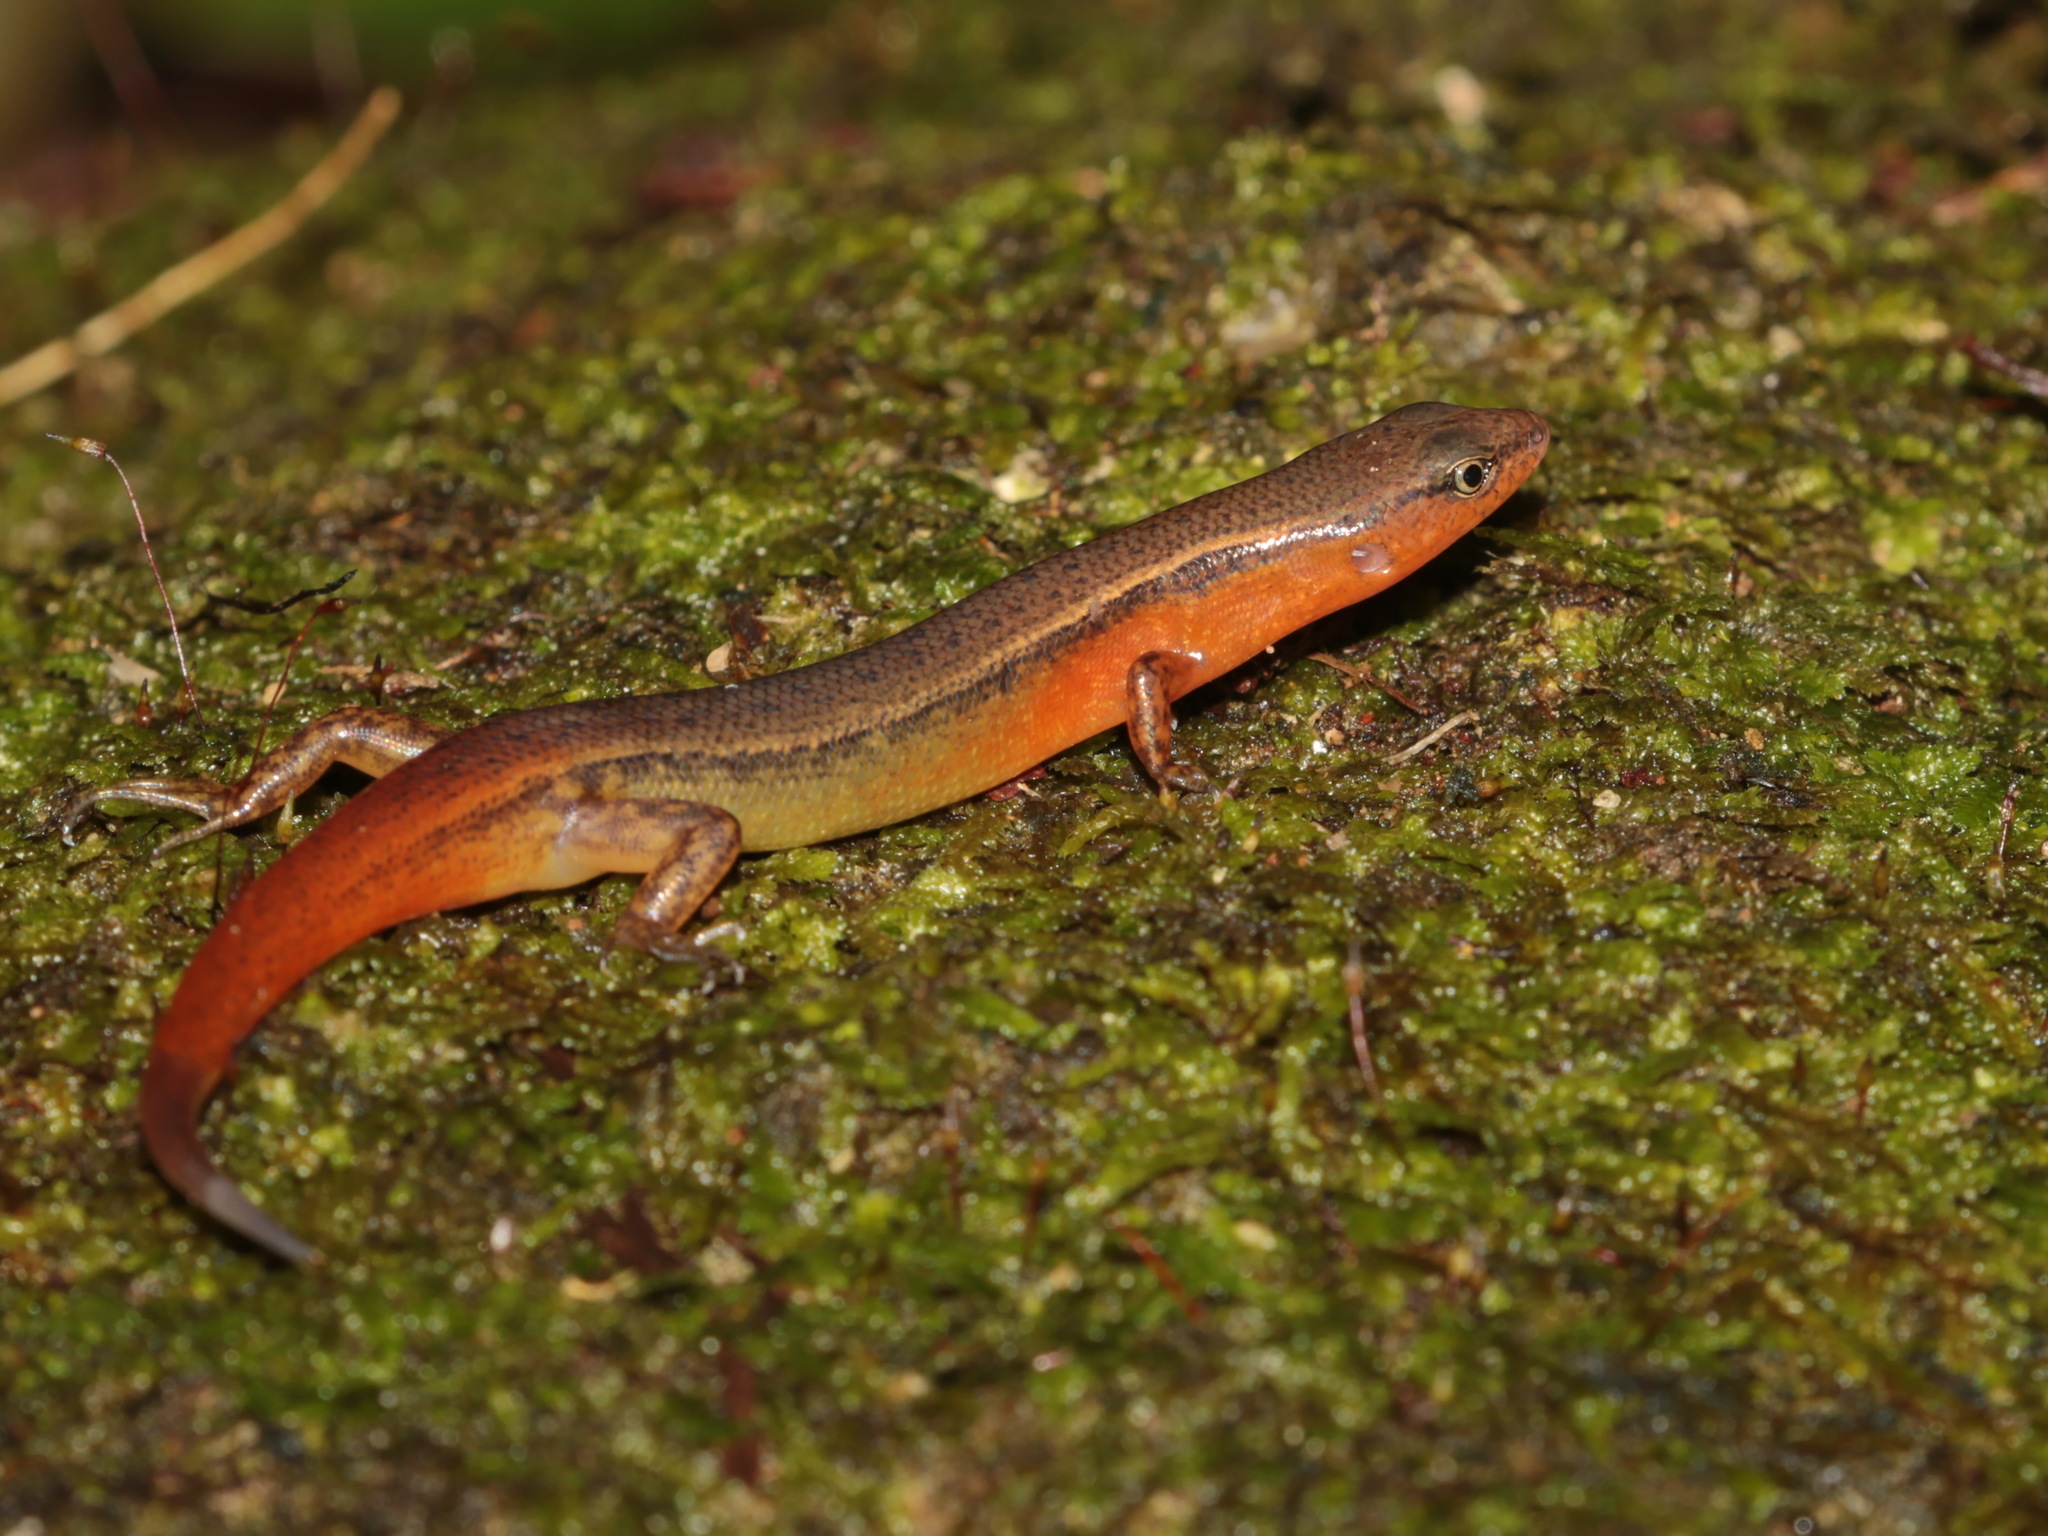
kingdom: Animalia
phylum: Chordata
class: Squamata
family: Scincidae
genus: Scincella
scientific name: Scincella melanosticta
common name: Black ground skink
